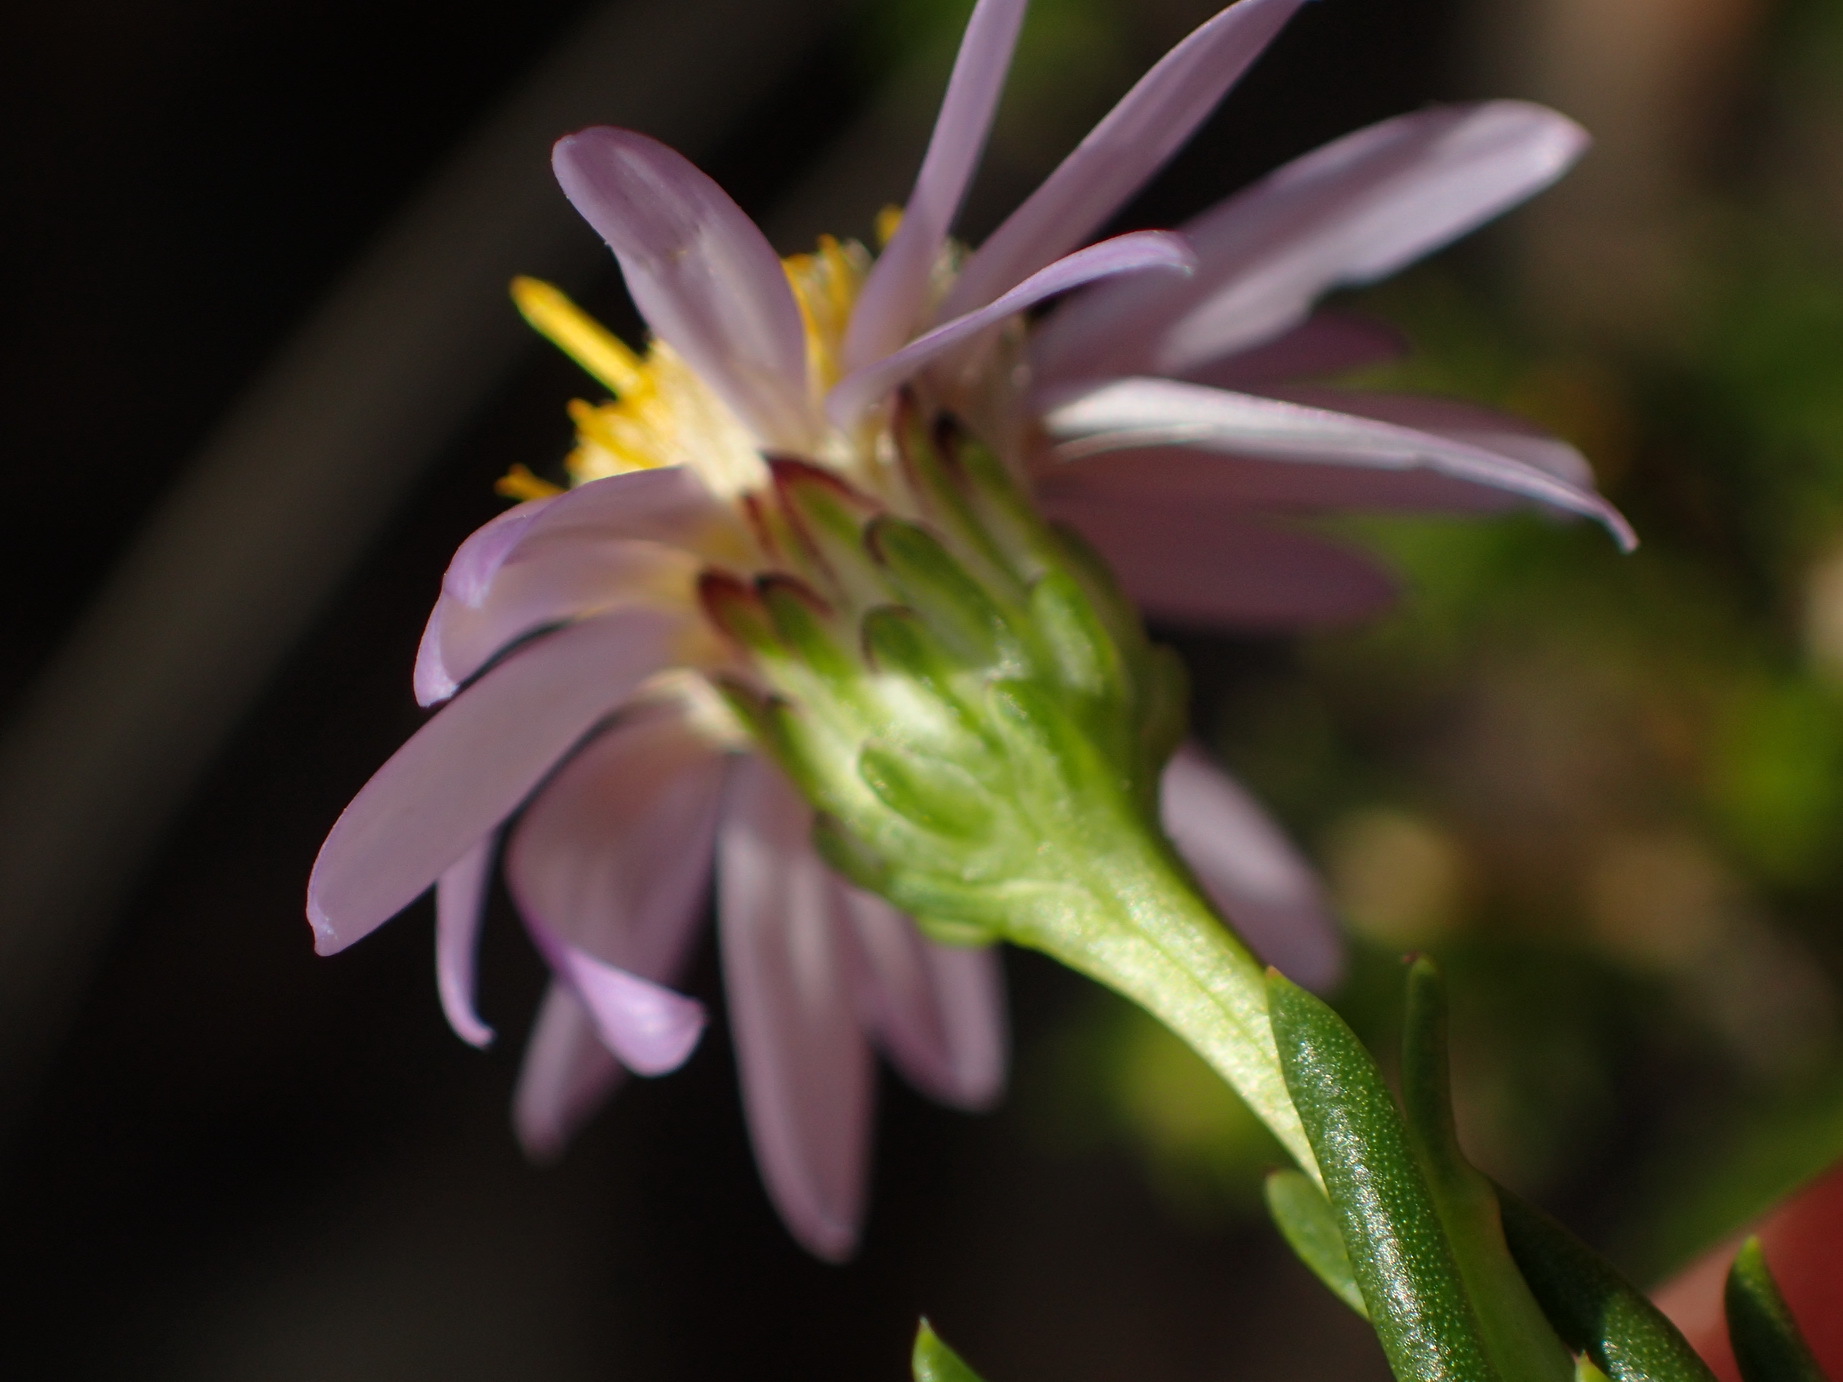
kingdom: Plantae
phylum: Tracheophyta
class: Magnoliopsida
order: Asterales
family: Asteraceae
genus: Felicia
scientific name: Felicia filifolia
